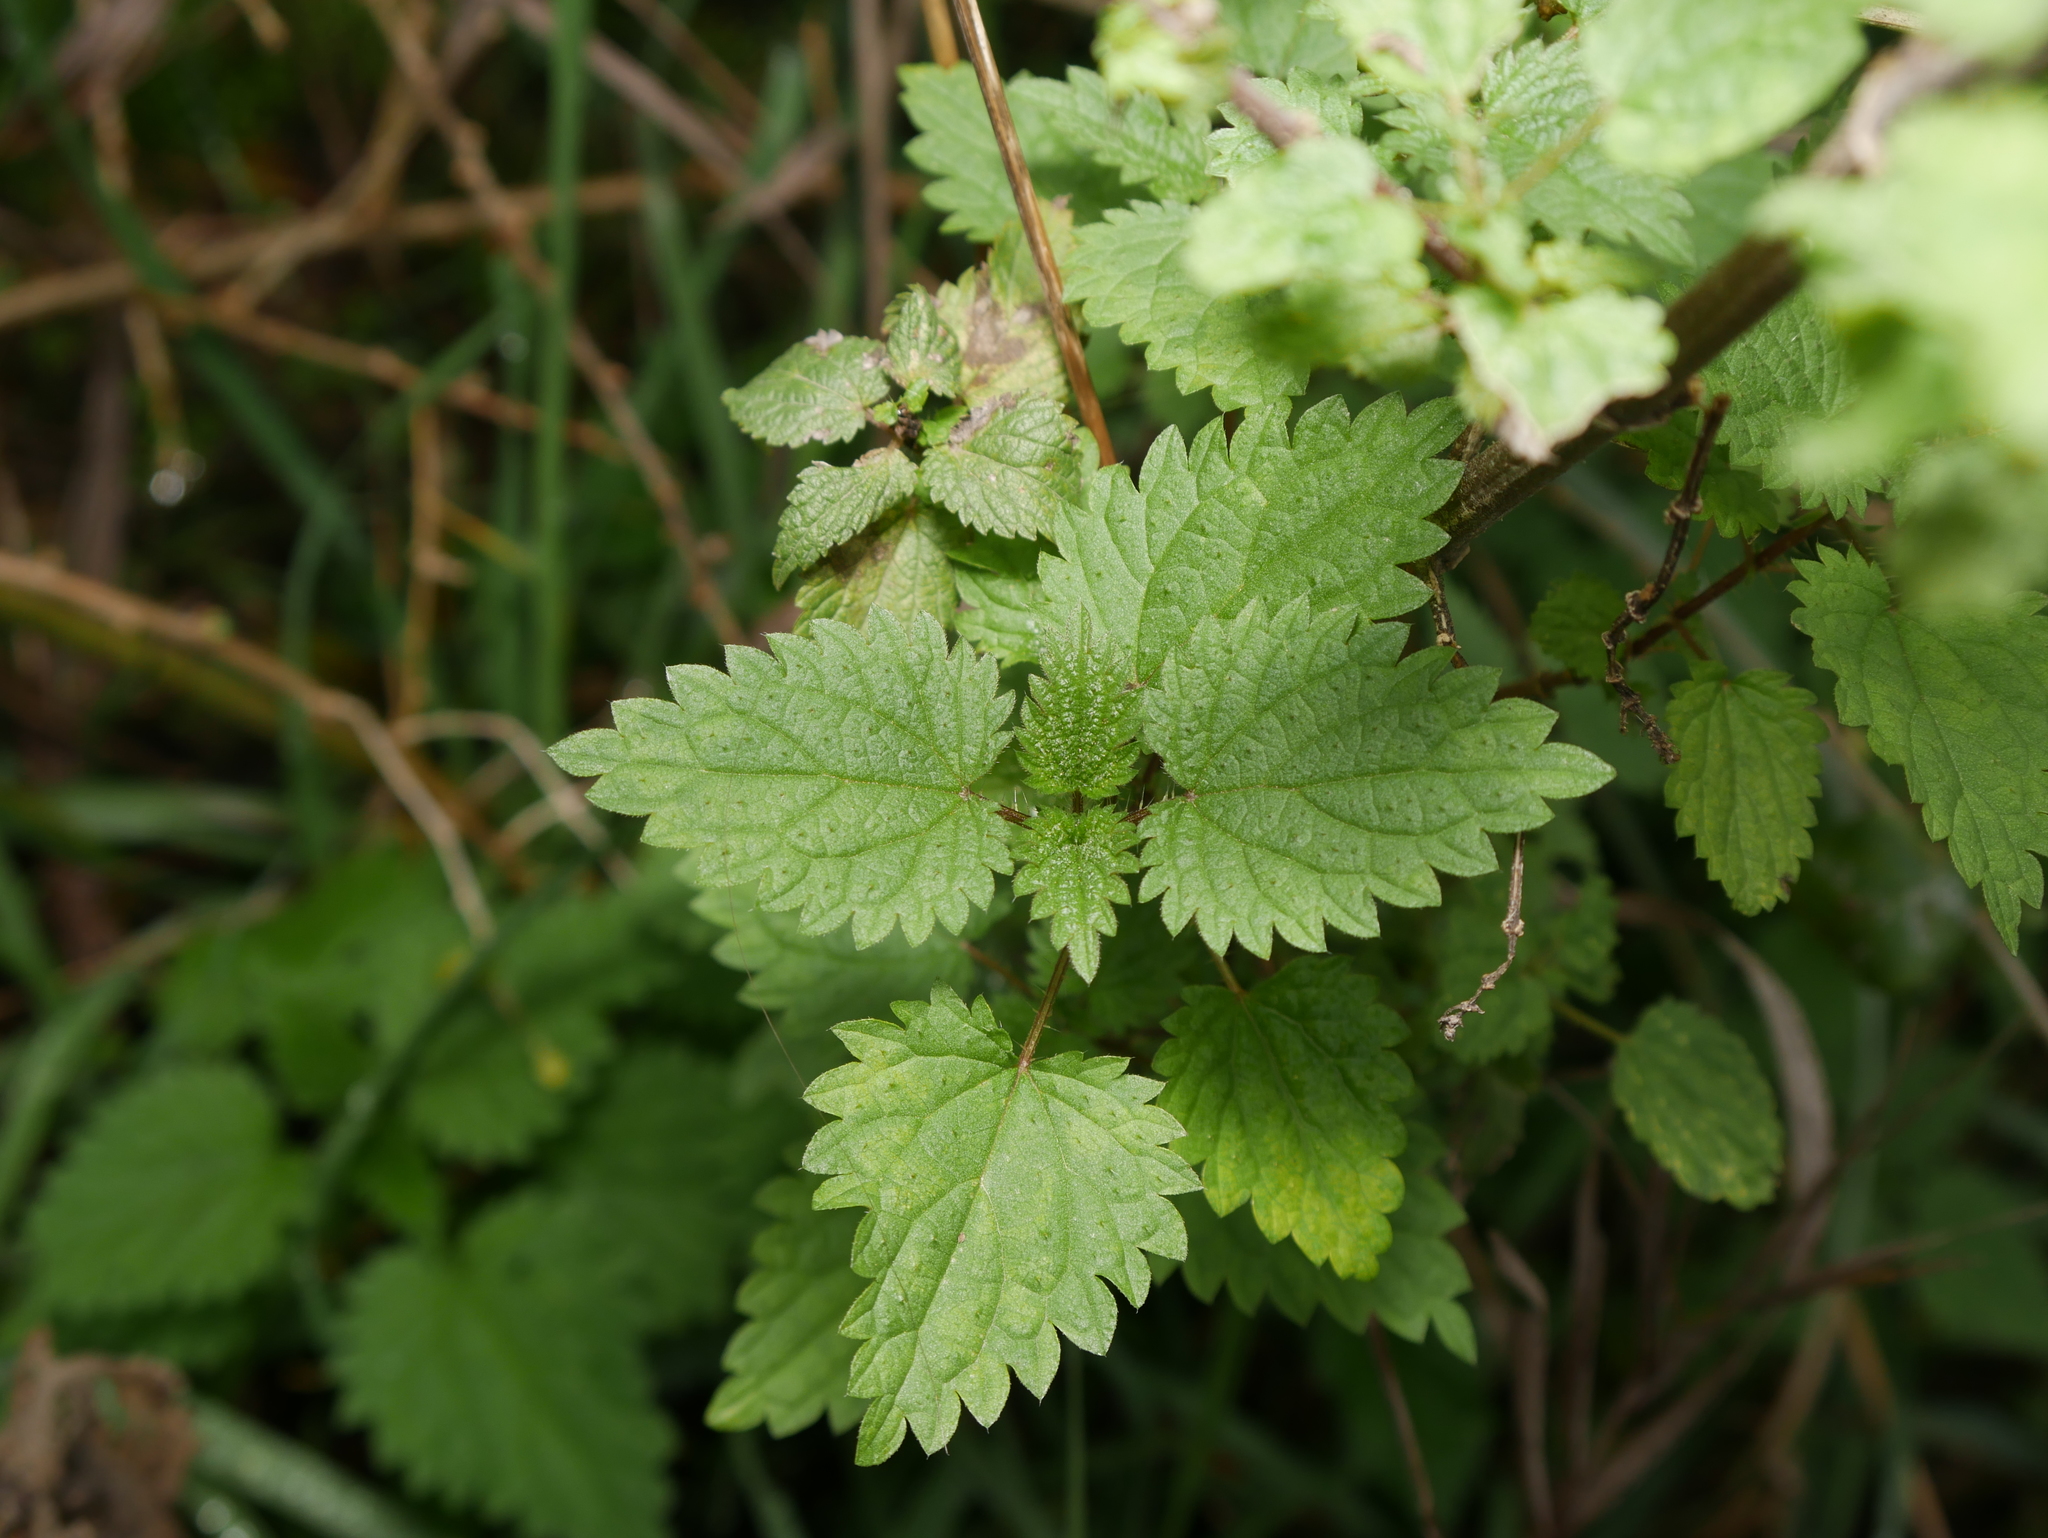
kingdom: Plantae
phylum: Tracheophyta
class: Magnoliopsida
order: Rosales
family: Urticaceae
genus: Urtica
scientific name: Urtica dioica
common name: Common nettle
